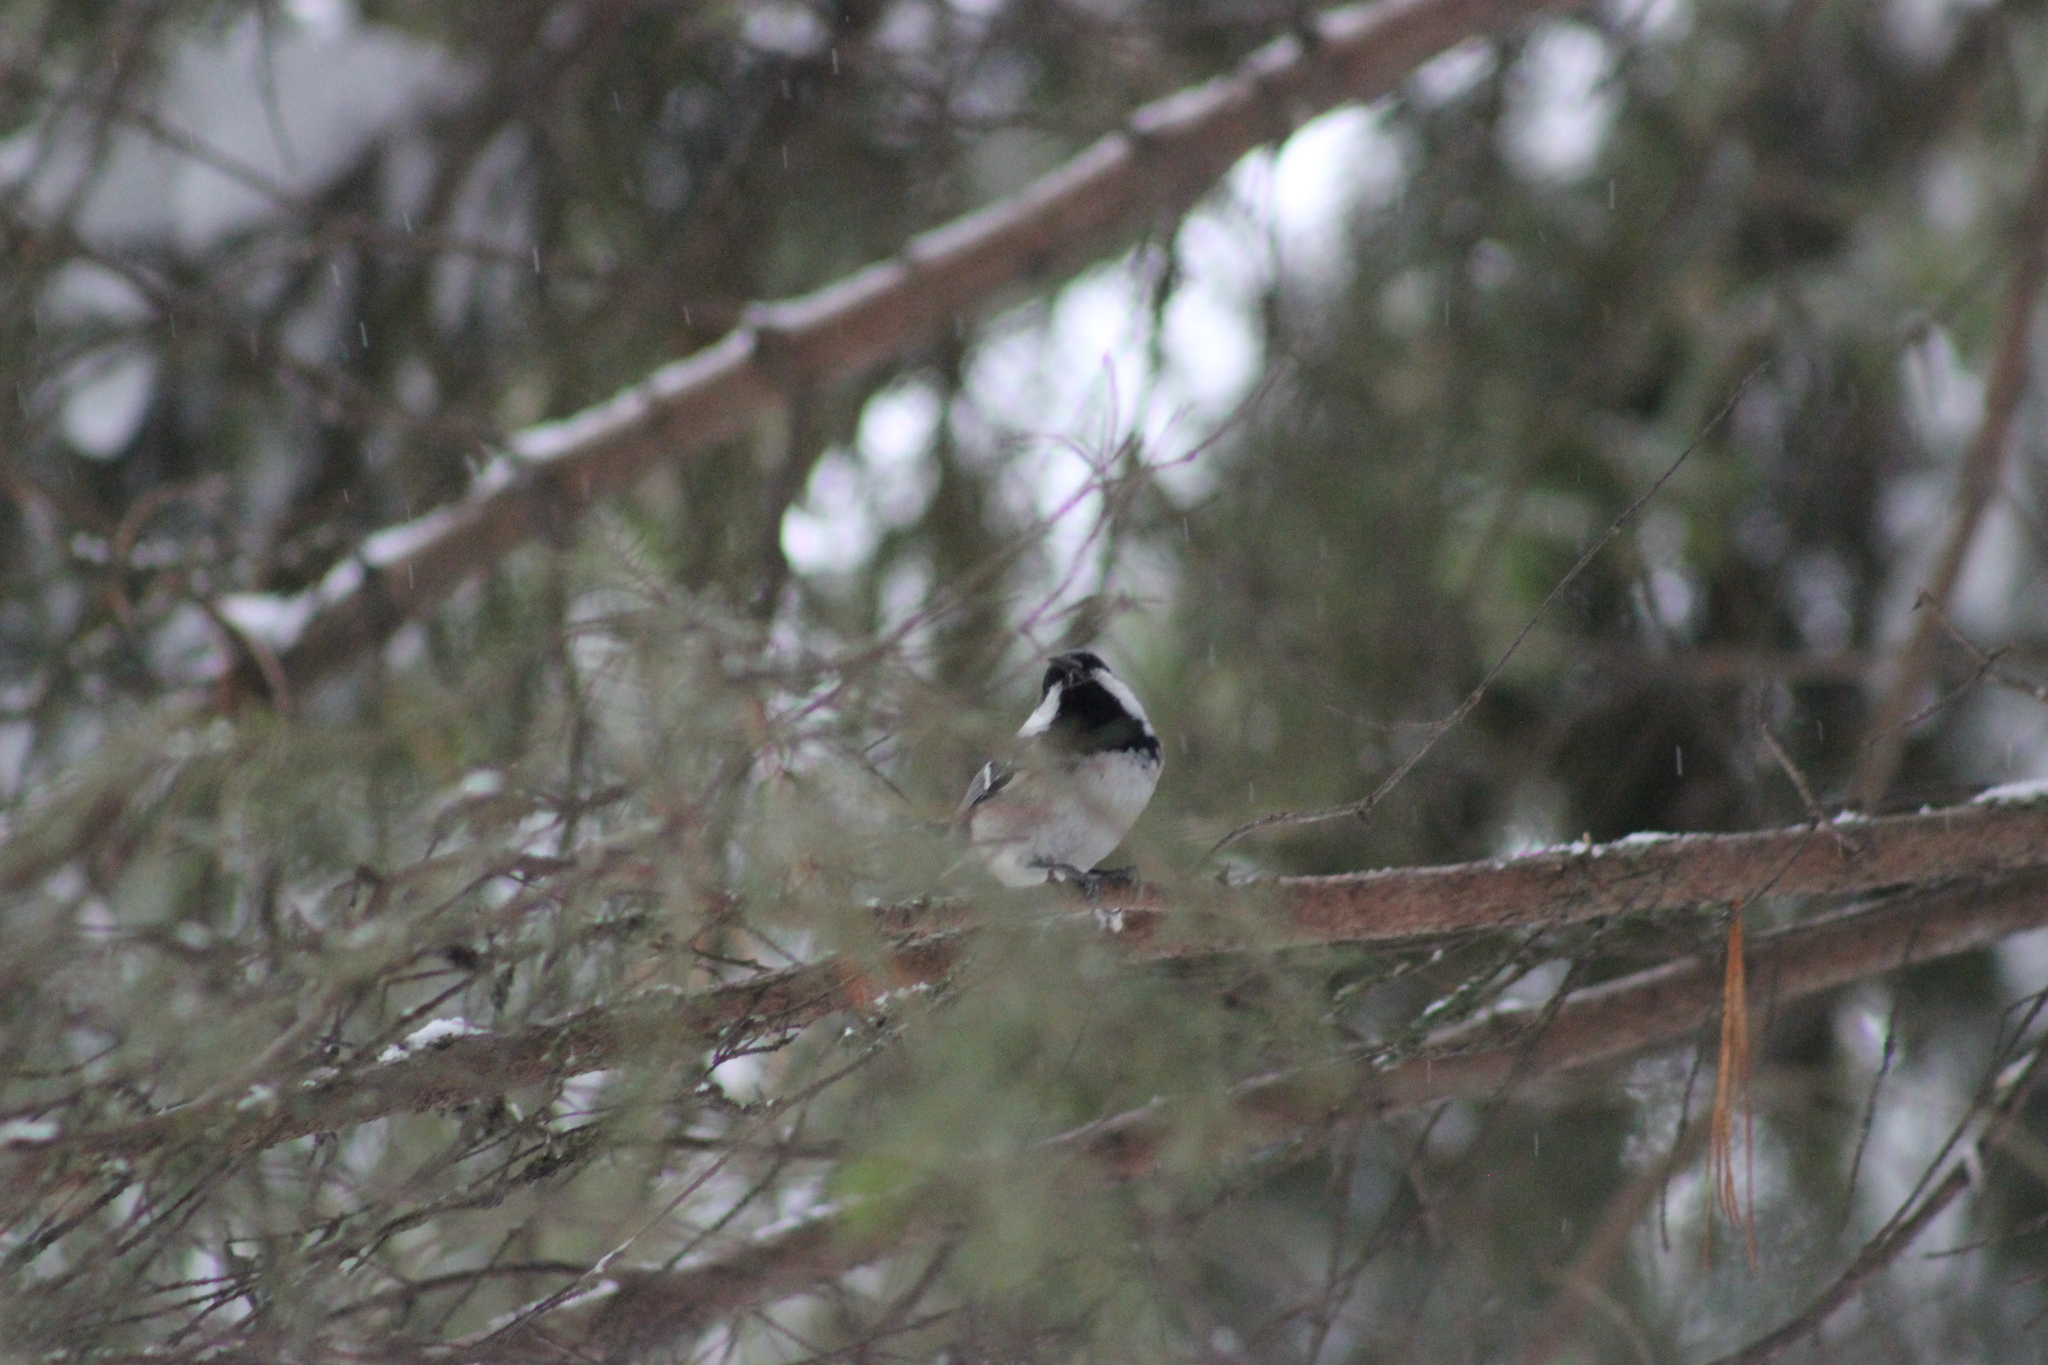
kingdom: Animalia
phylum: Chordata
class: Aves
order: Passeriformes
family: Paridae
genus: Periparus
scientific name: Periparus ater
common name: Coal tit
